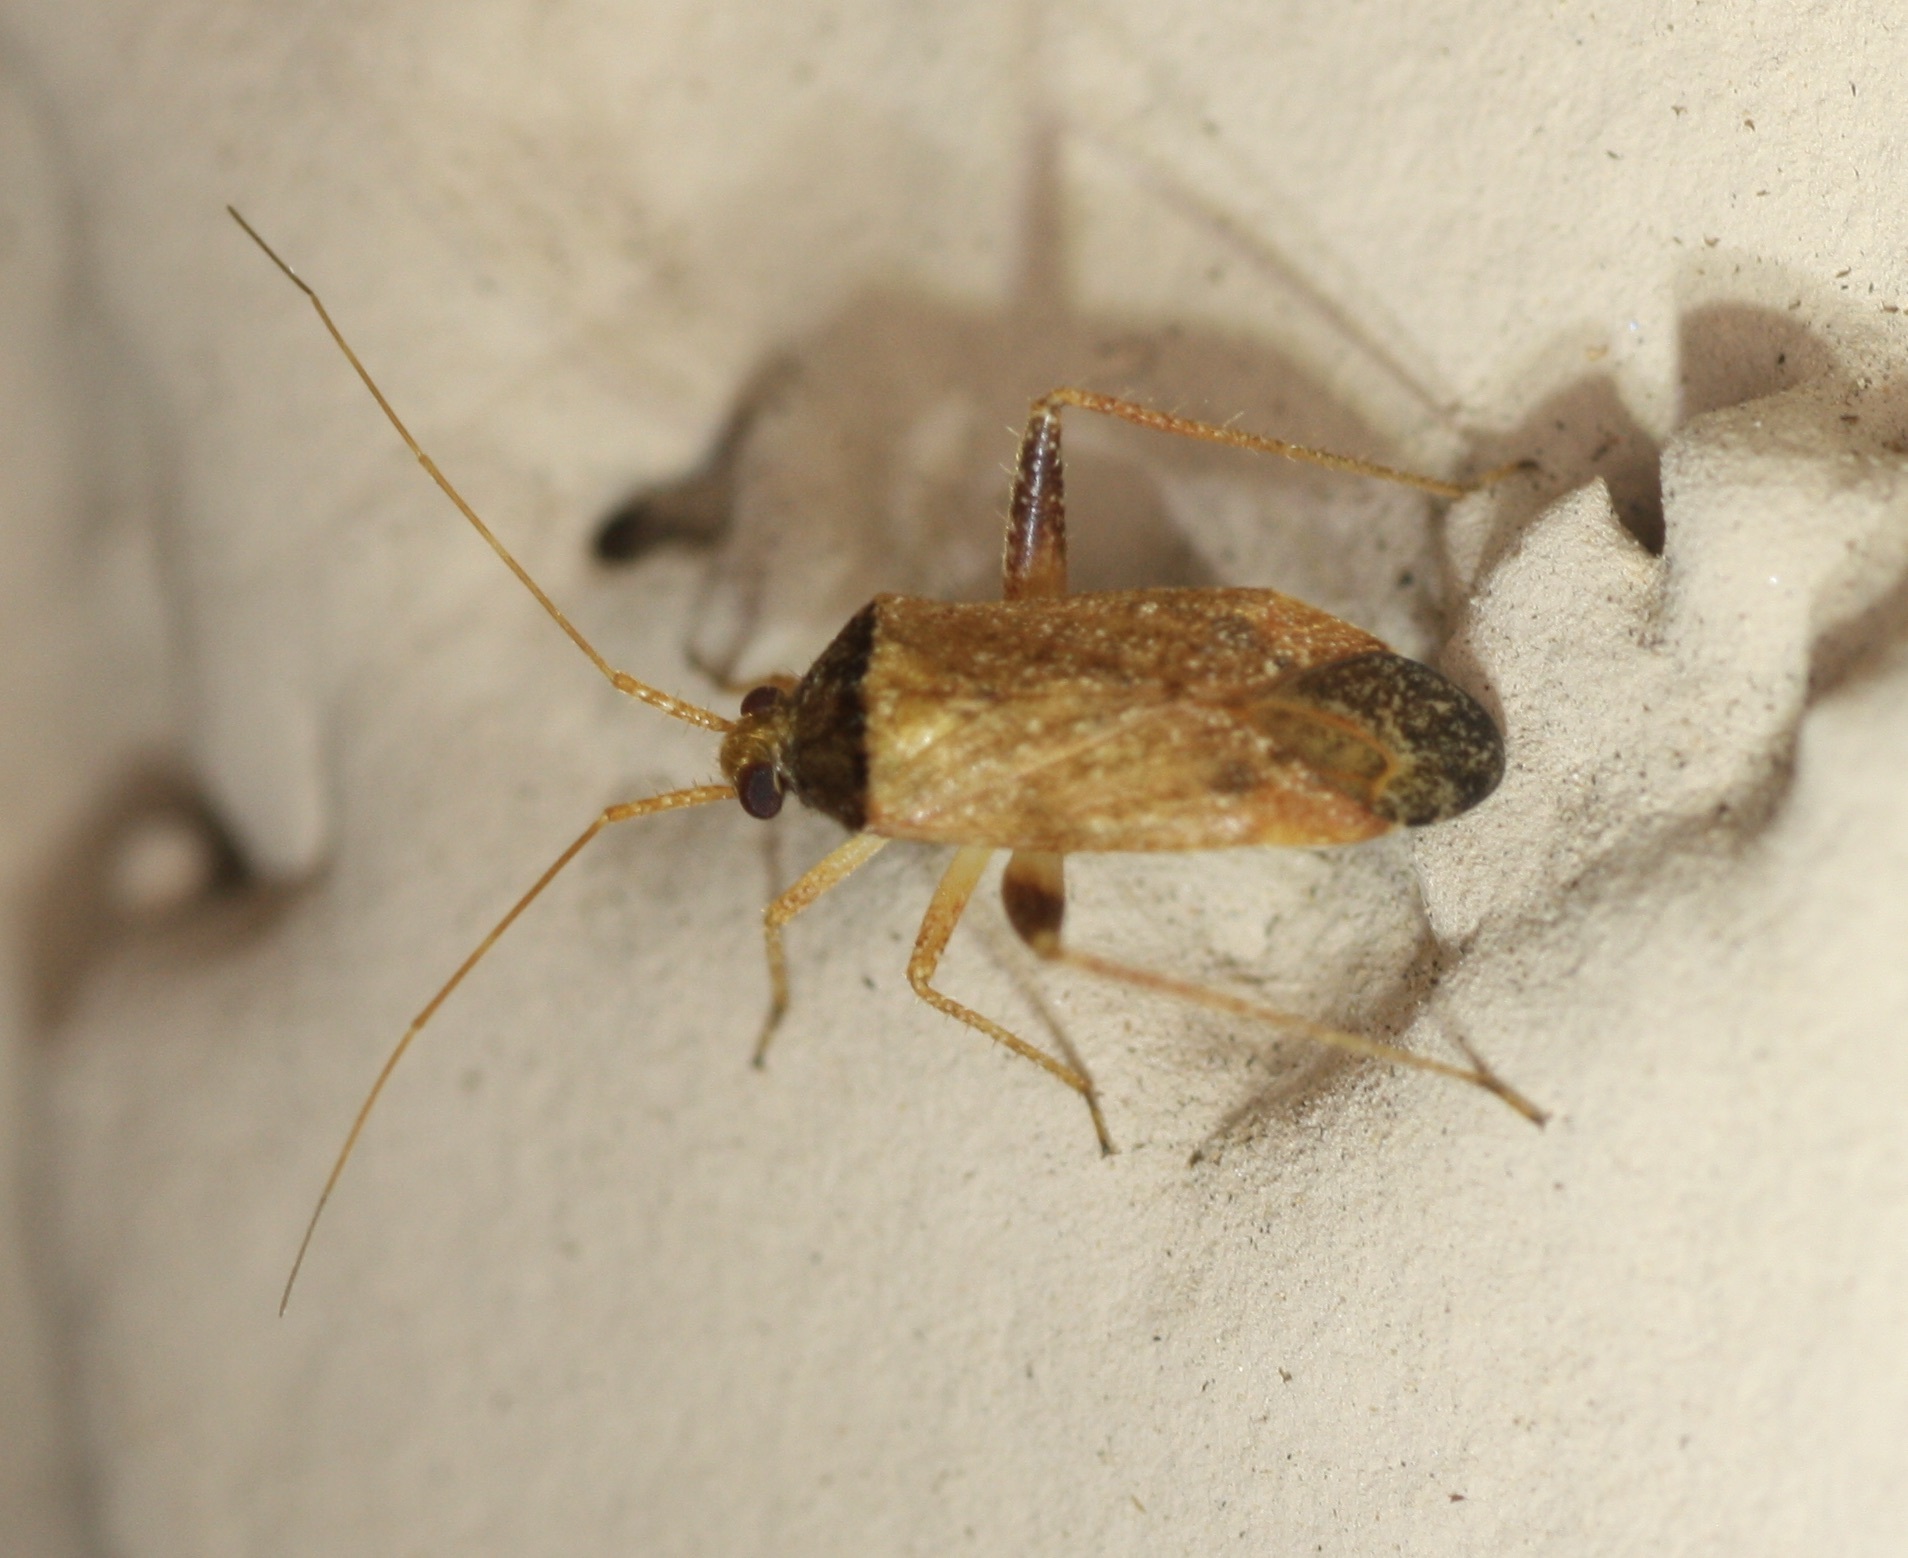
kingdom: Animalia
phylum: Arthropoda
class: Insecta
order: Hemiptera
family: Miridae
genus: Phytocoris
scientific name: Phytocoris ramosus
